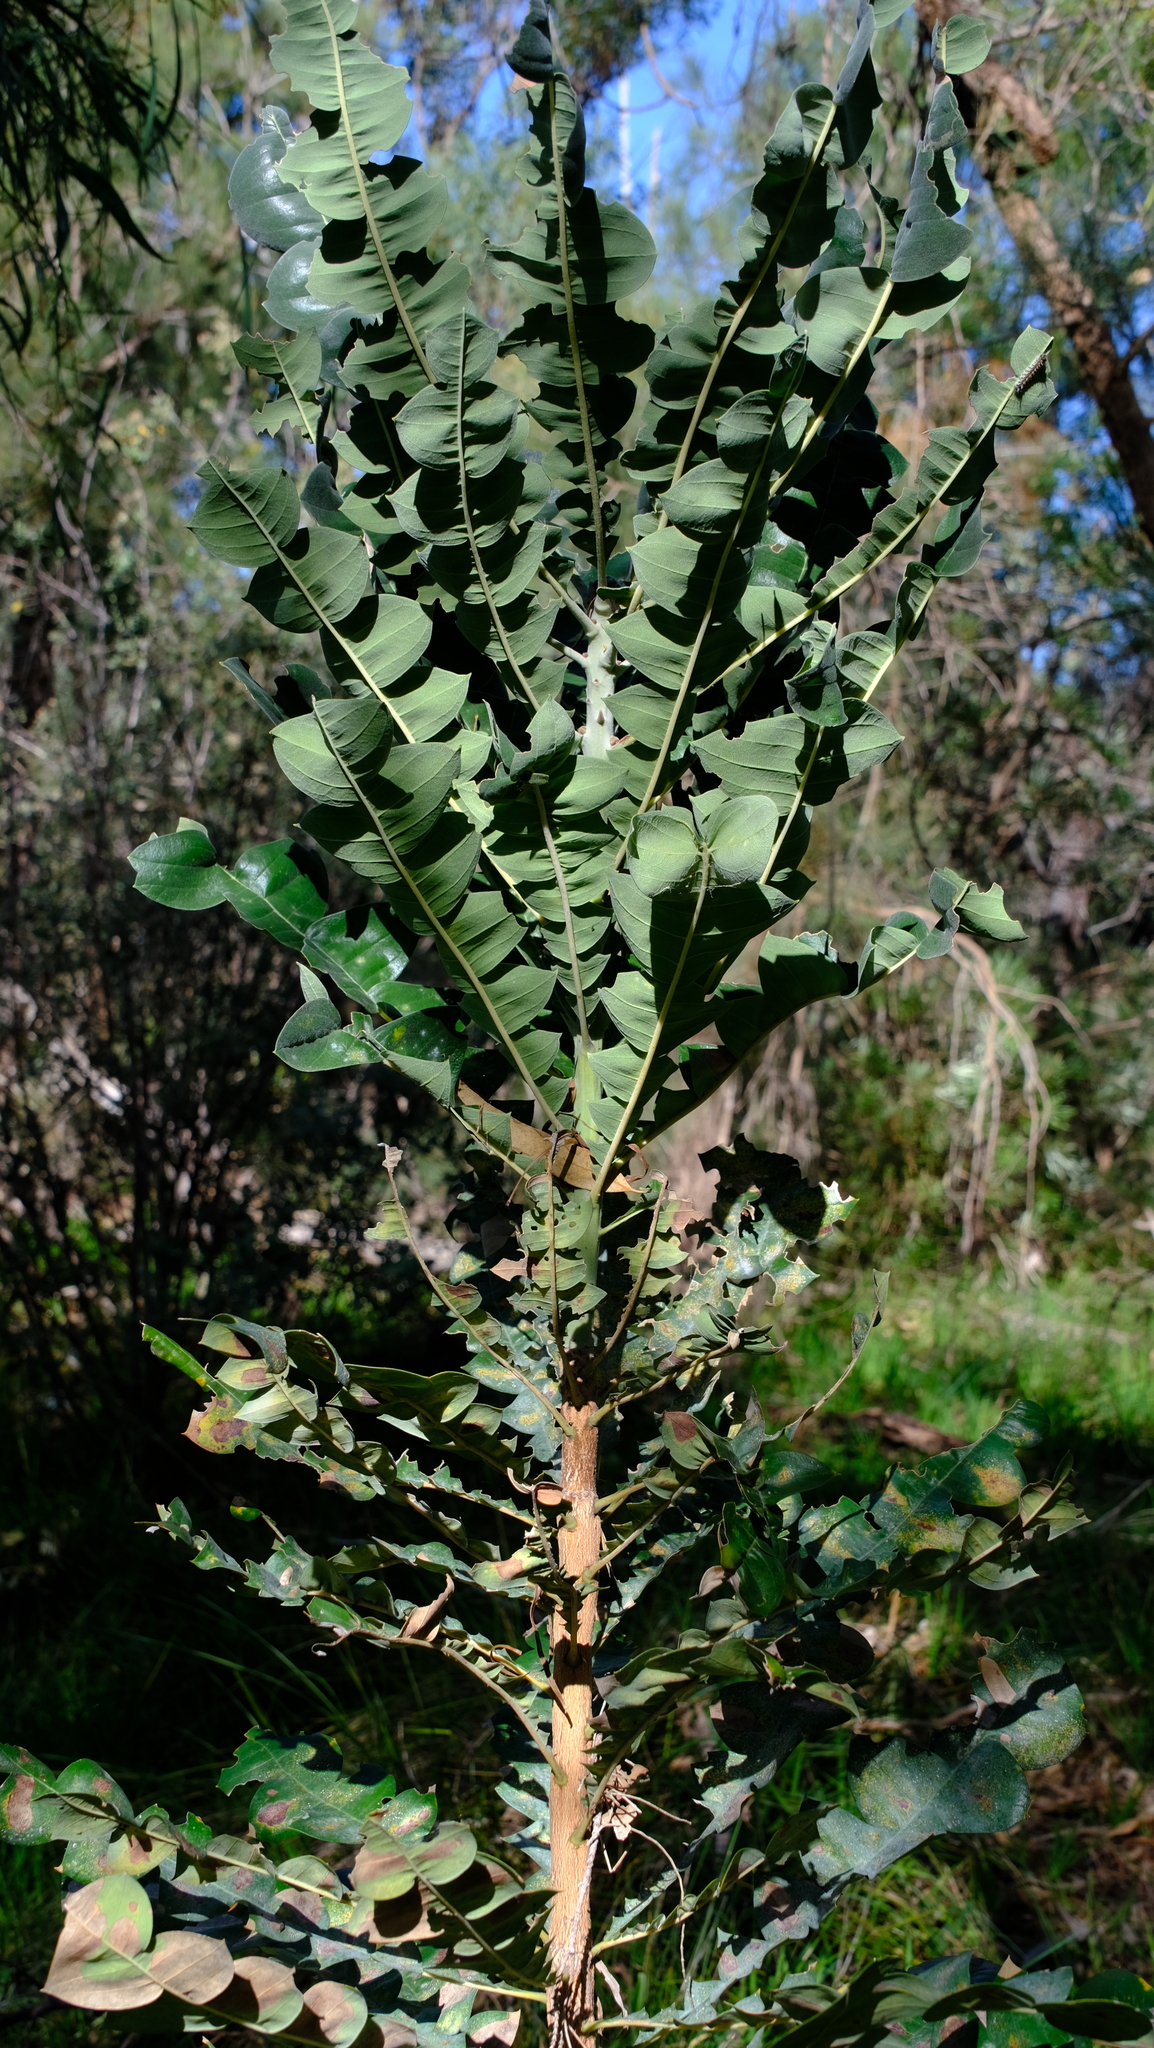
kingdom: Plantae
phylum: Tracheophyta
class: Magnoliopsida
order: Proteales
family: Proteaceae
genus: Banksia
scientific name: Banksia grandis
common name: Giant banksia
